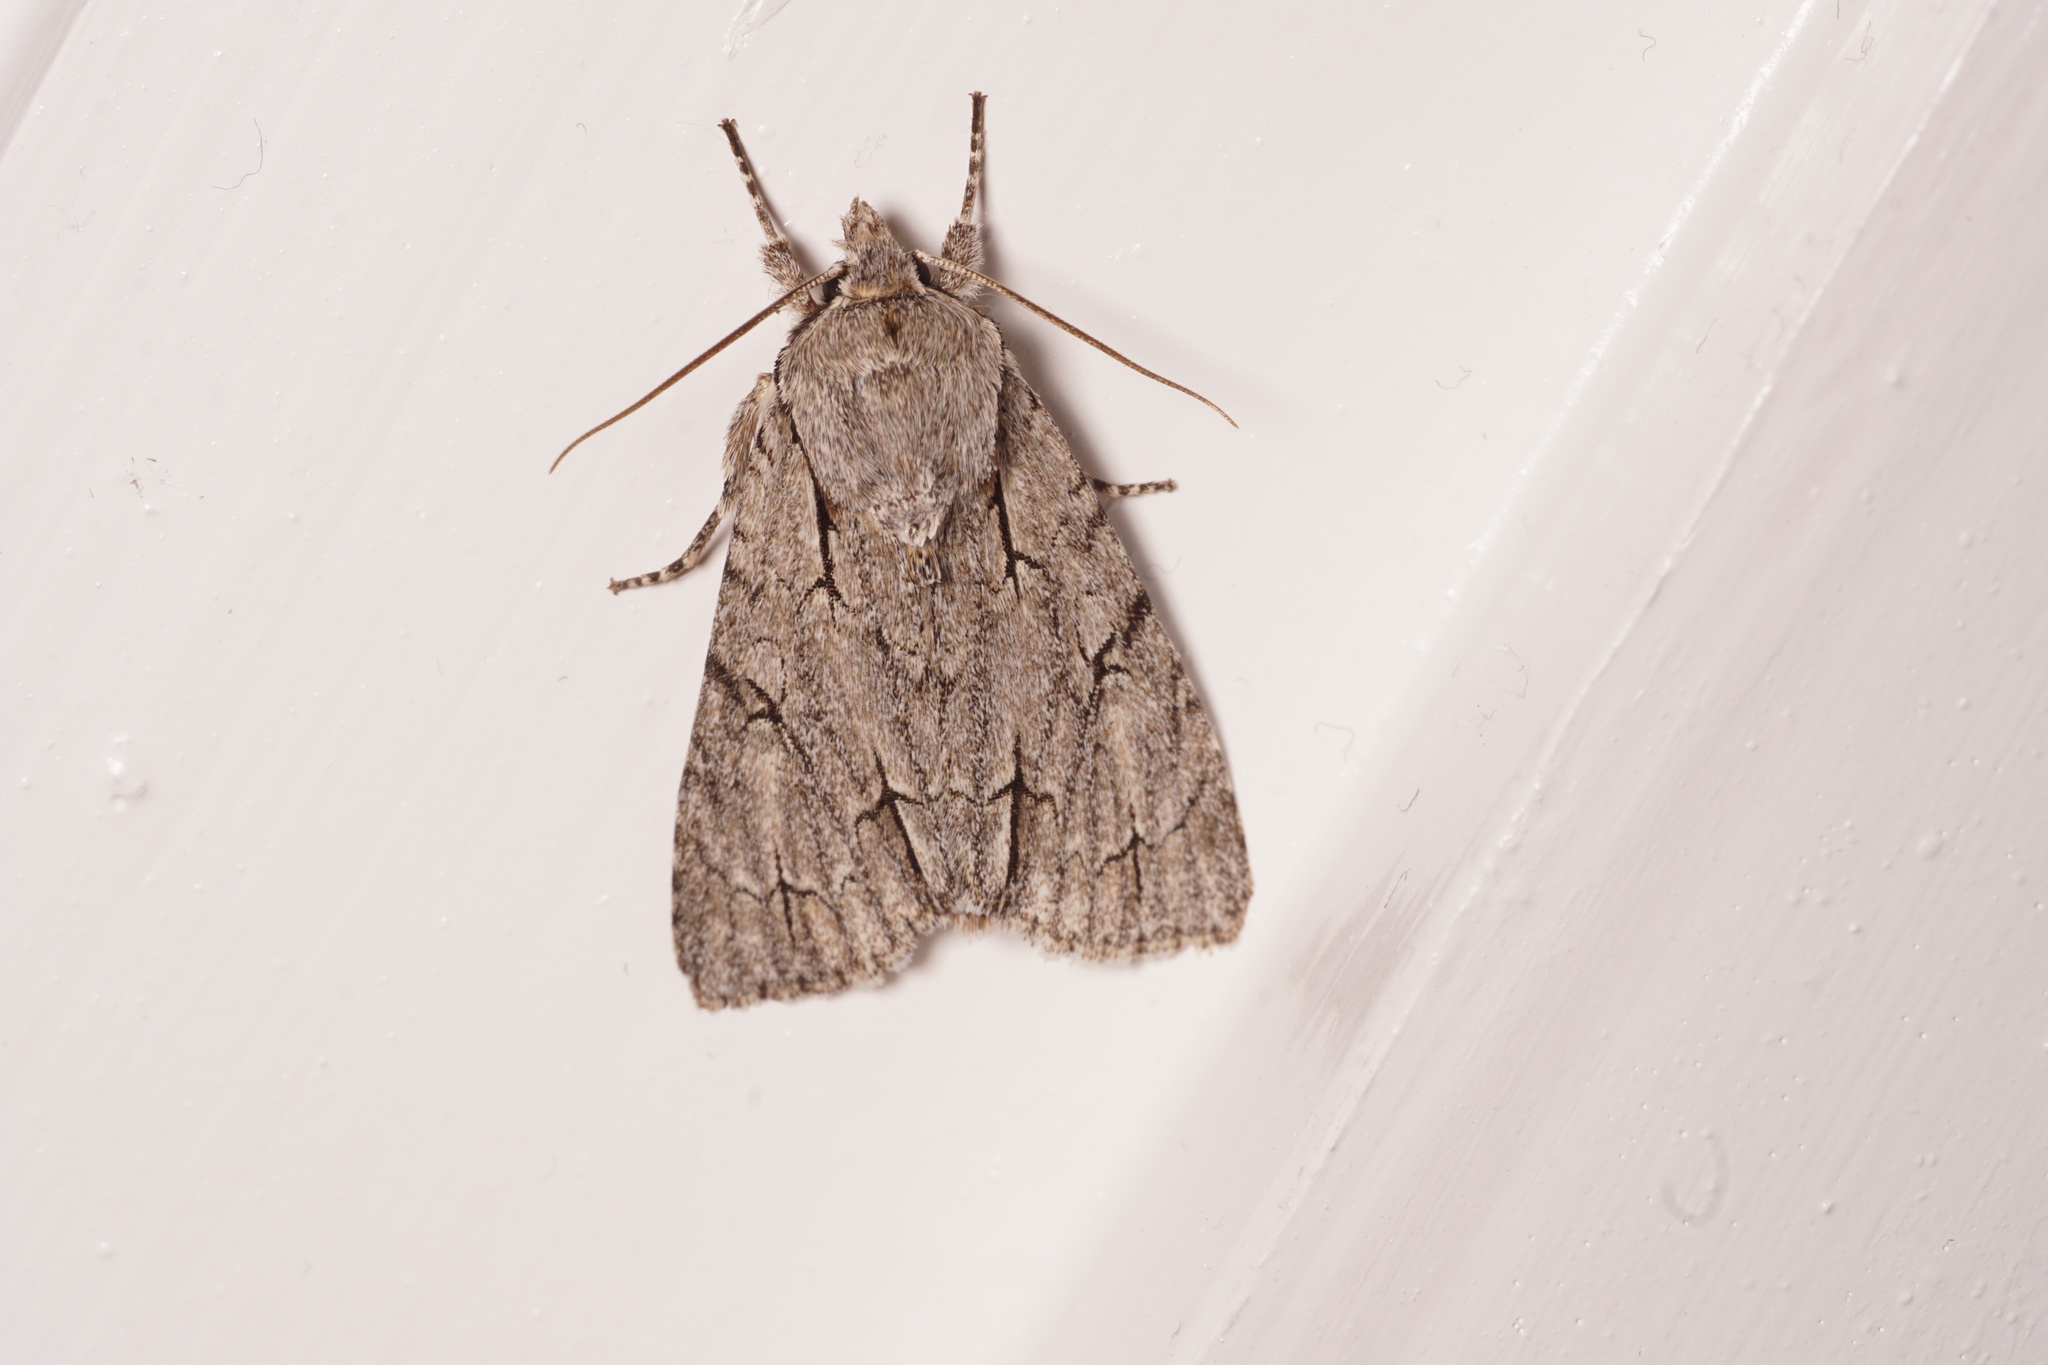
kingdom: Animalia
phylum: Arthropoda
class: Insecta
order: Lepidoptera
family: Noctuidae
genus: Acronicta
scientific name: Acronicta psi
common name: Grey dagger
